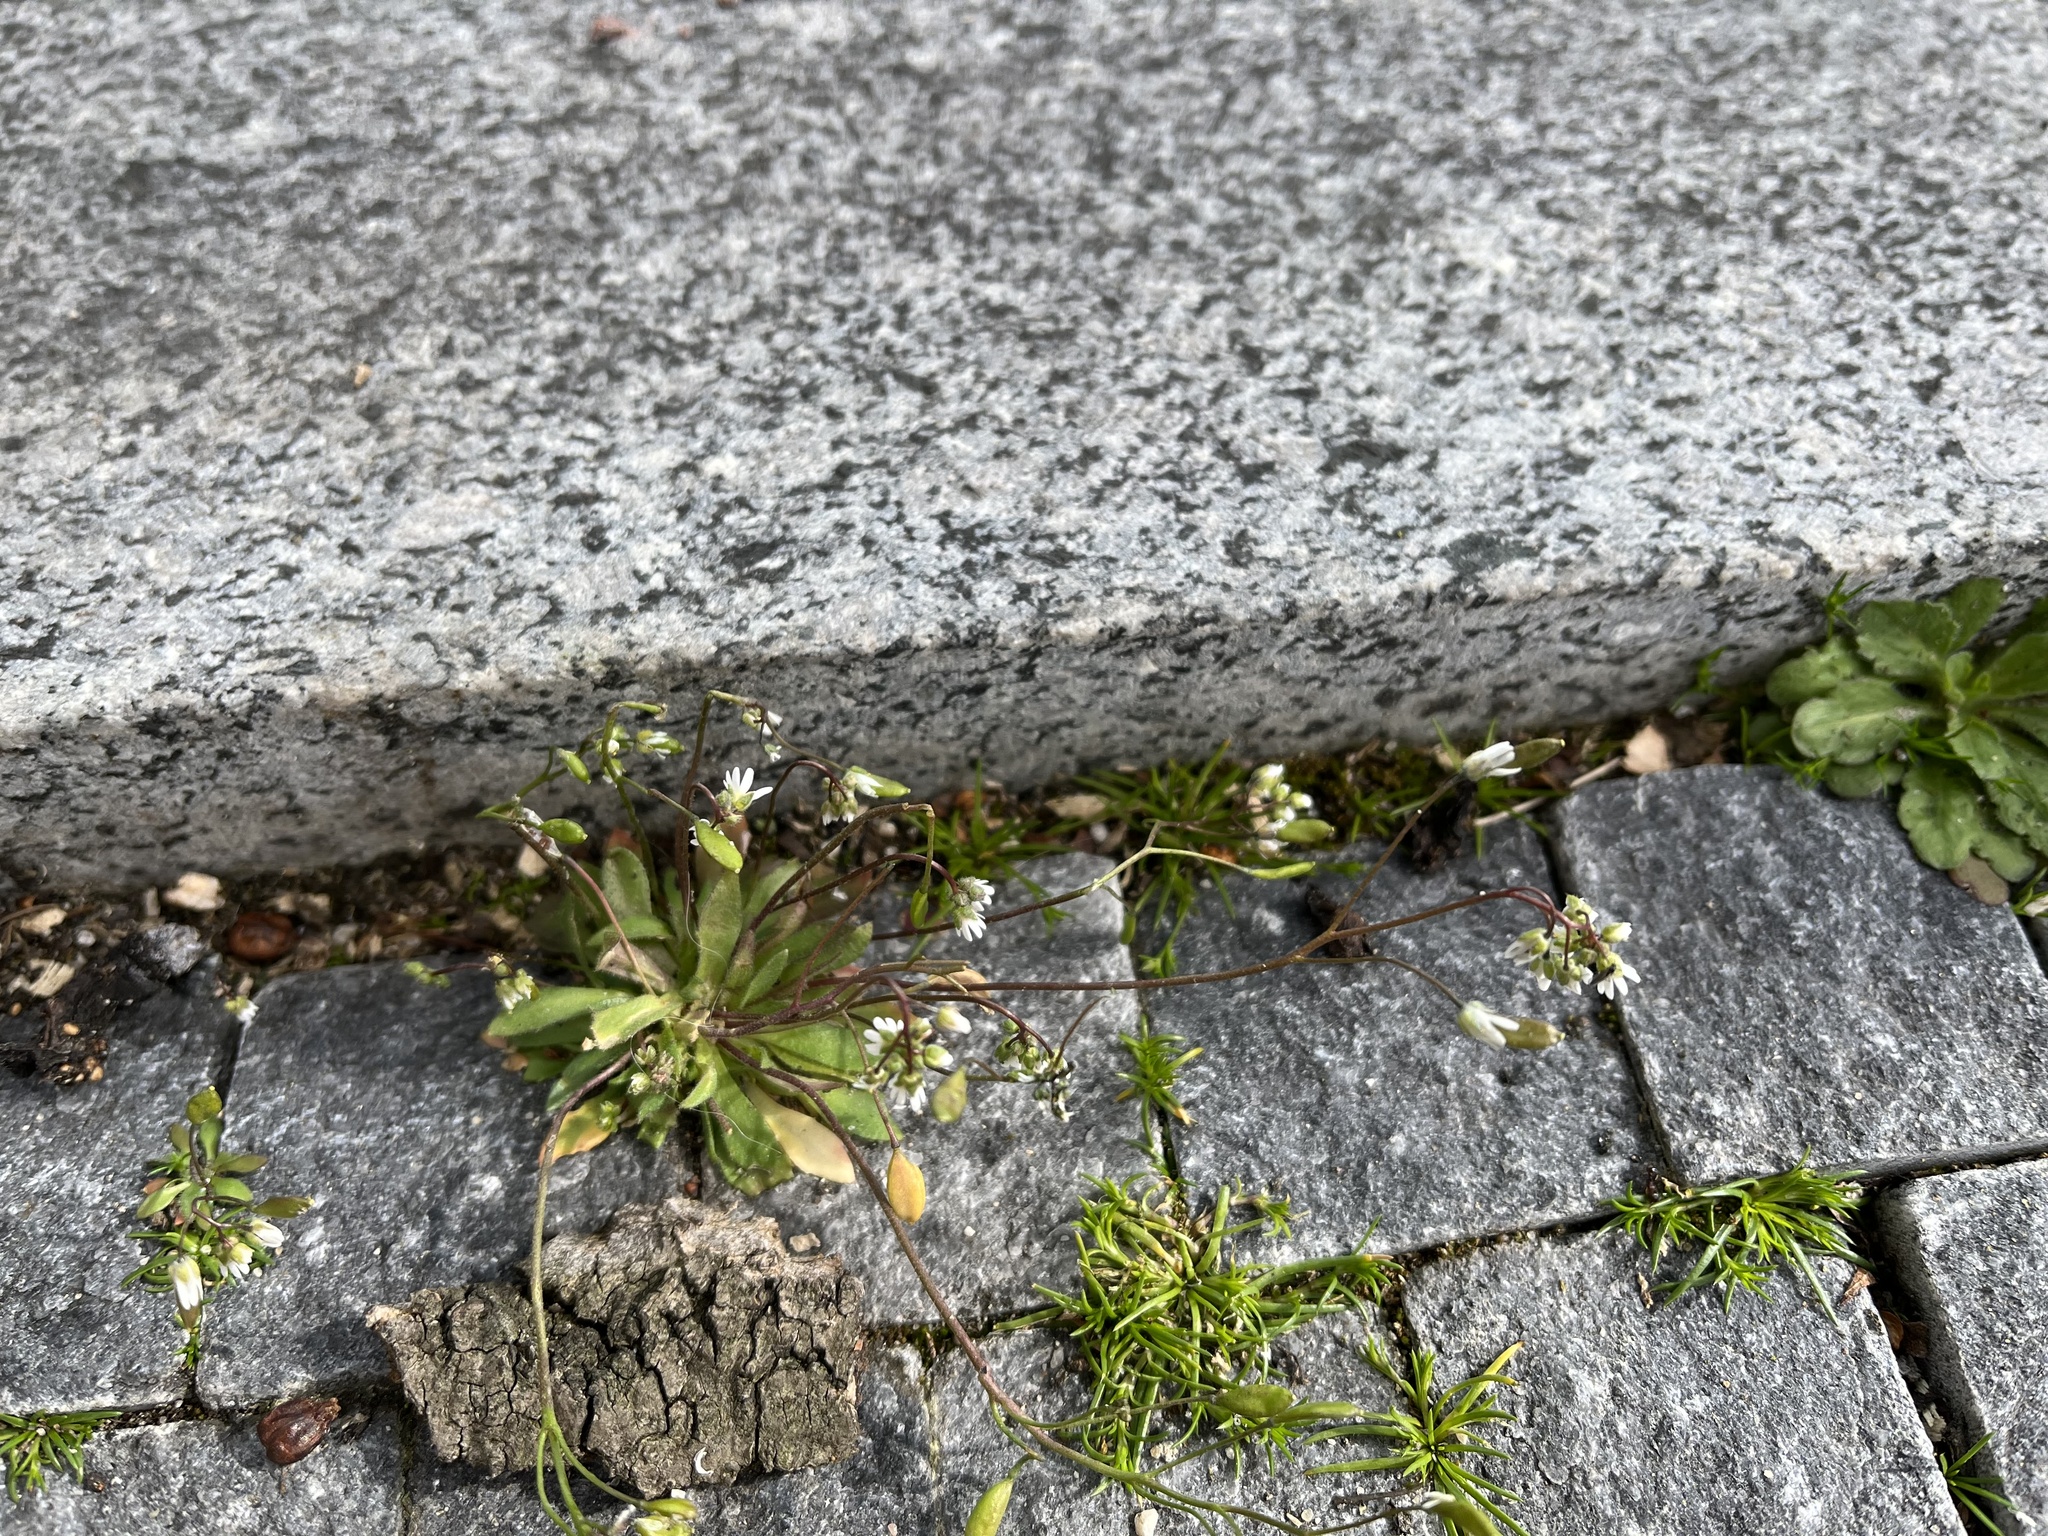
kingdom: Plantae
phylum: Tracheophyta
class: Magnoliopsida
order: Brassicales
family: Brassicaceae
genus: Draba
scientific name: Draba verna
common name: Spring draba
